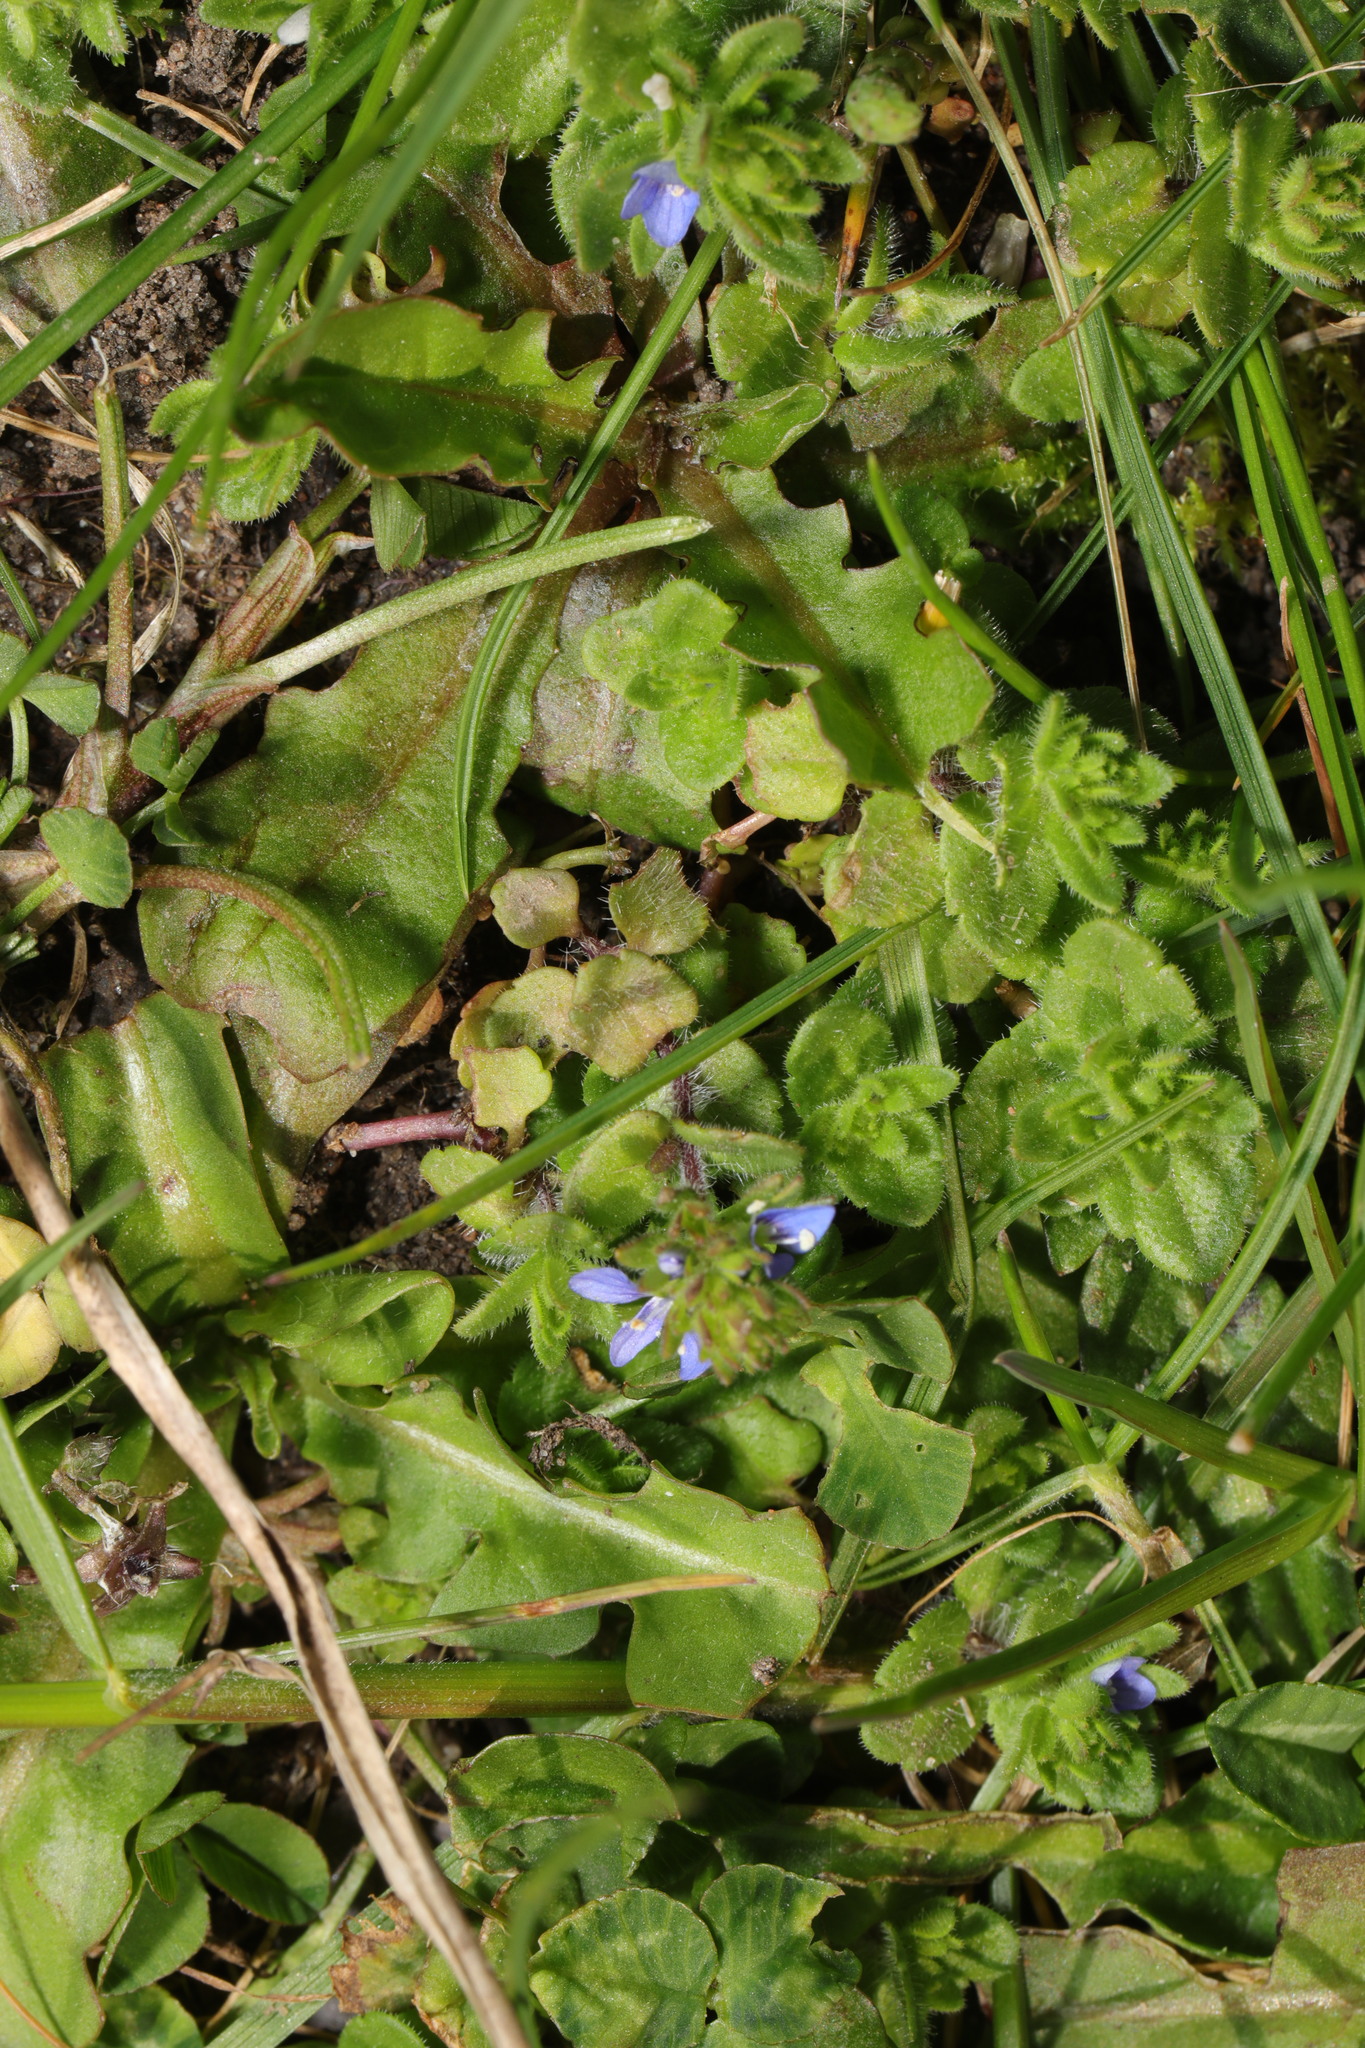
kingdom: Plantae
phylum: Tracheophyta
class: Magnoliopsida
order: Lamiales
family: Plantaginaceae
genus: Veronica
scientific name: Veronica arvensis
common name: Corn speedwell
